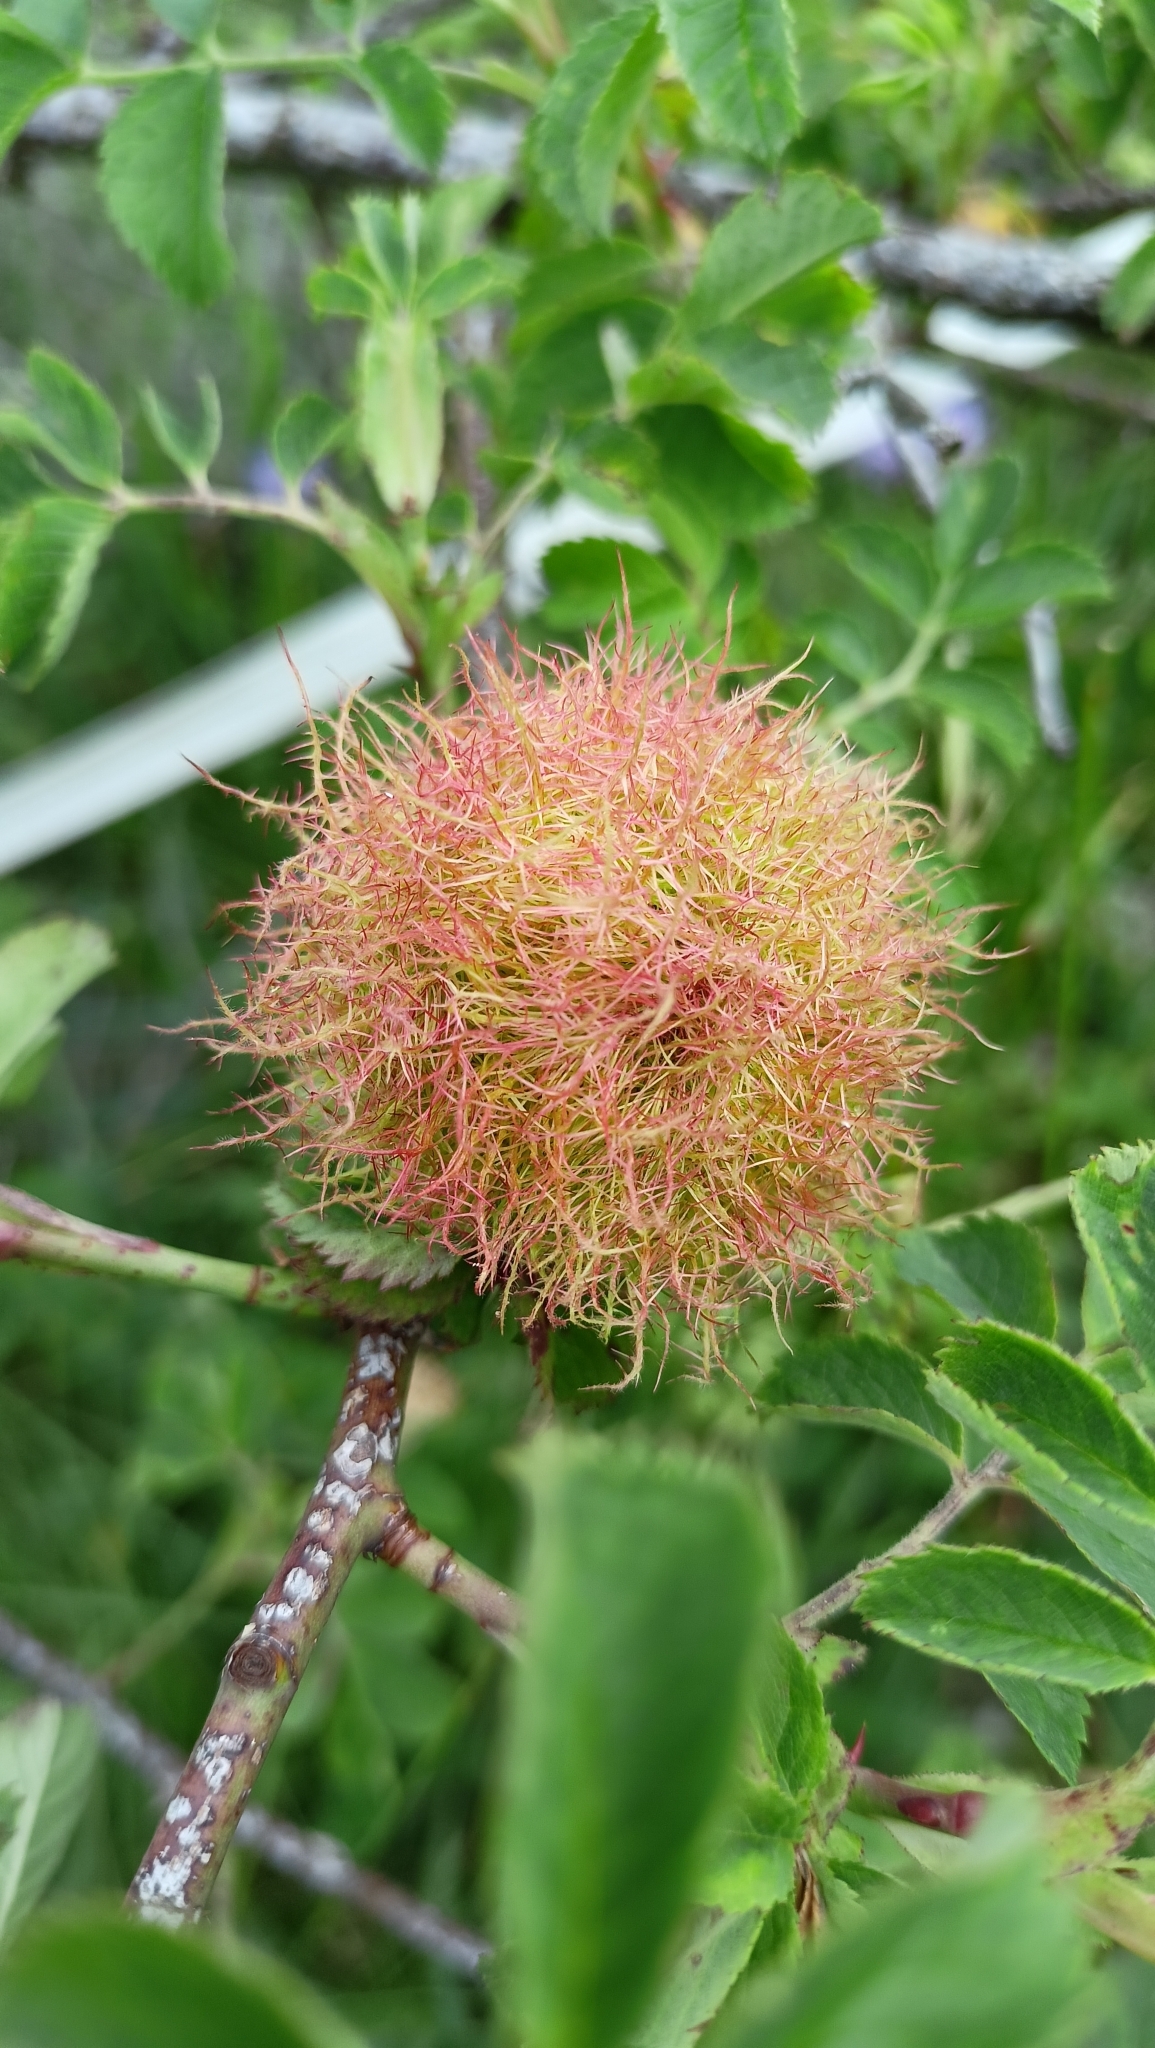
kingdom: Animalia
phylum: Arthropoda
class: Insecta
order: Hymenoptera
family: Cynipidae
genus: Diplolepis
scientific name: Diplolepis rosae
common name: Bedeguar gall
